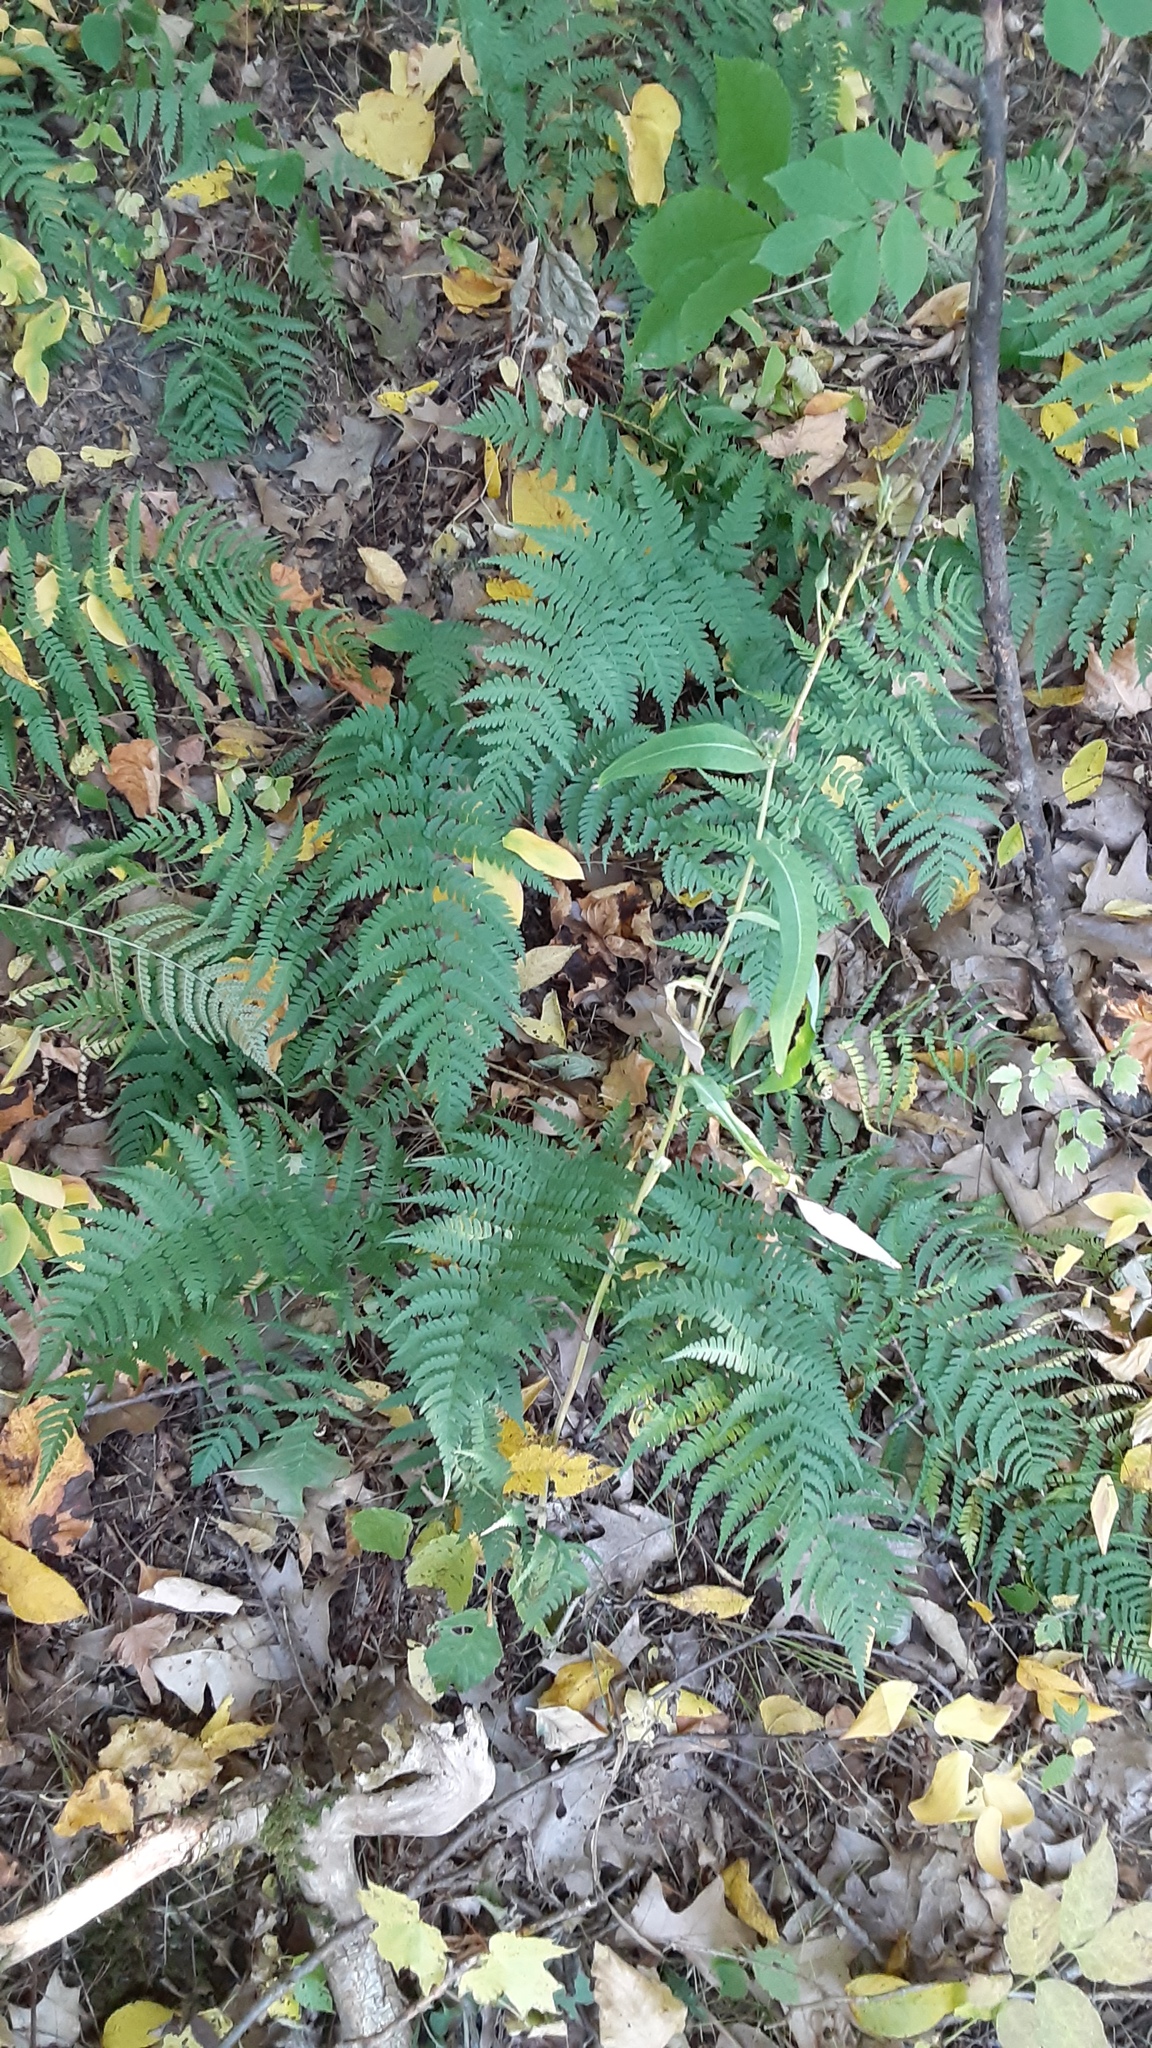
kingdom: Plantae
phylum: Tracheophyta
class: Polypodiopsida
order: Polypodiales
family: Dryopteridaceae
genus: Dryopteris
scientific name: Dryopteris marginalis
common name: Marginal wood fern
